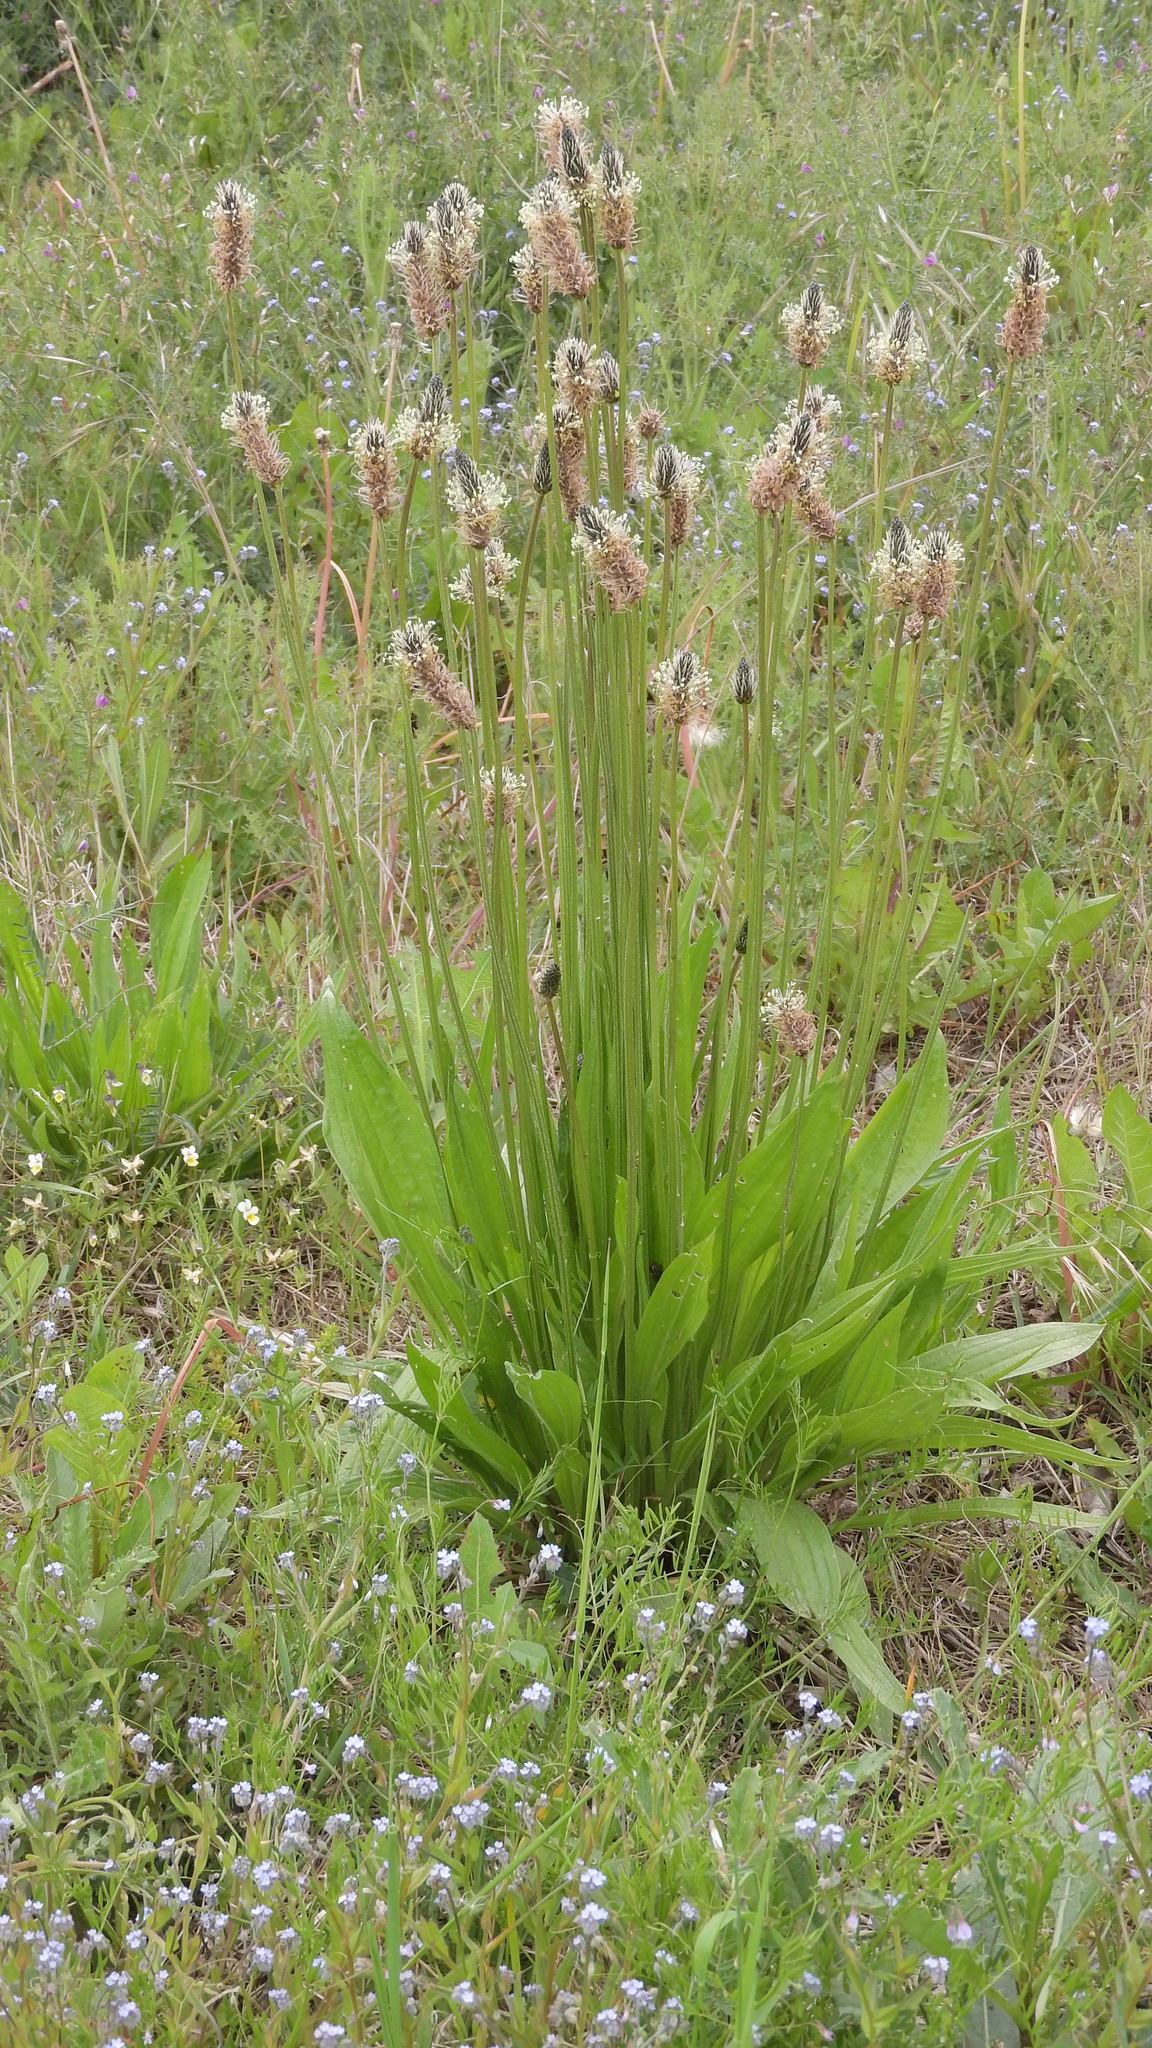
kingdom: Plantae
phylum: Tracheophyta
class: Magnoliopsida
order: Lamiales
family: Plantaginaceae
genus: Plantago
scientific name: Plantago lanceolata
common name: Ribwort plantain
